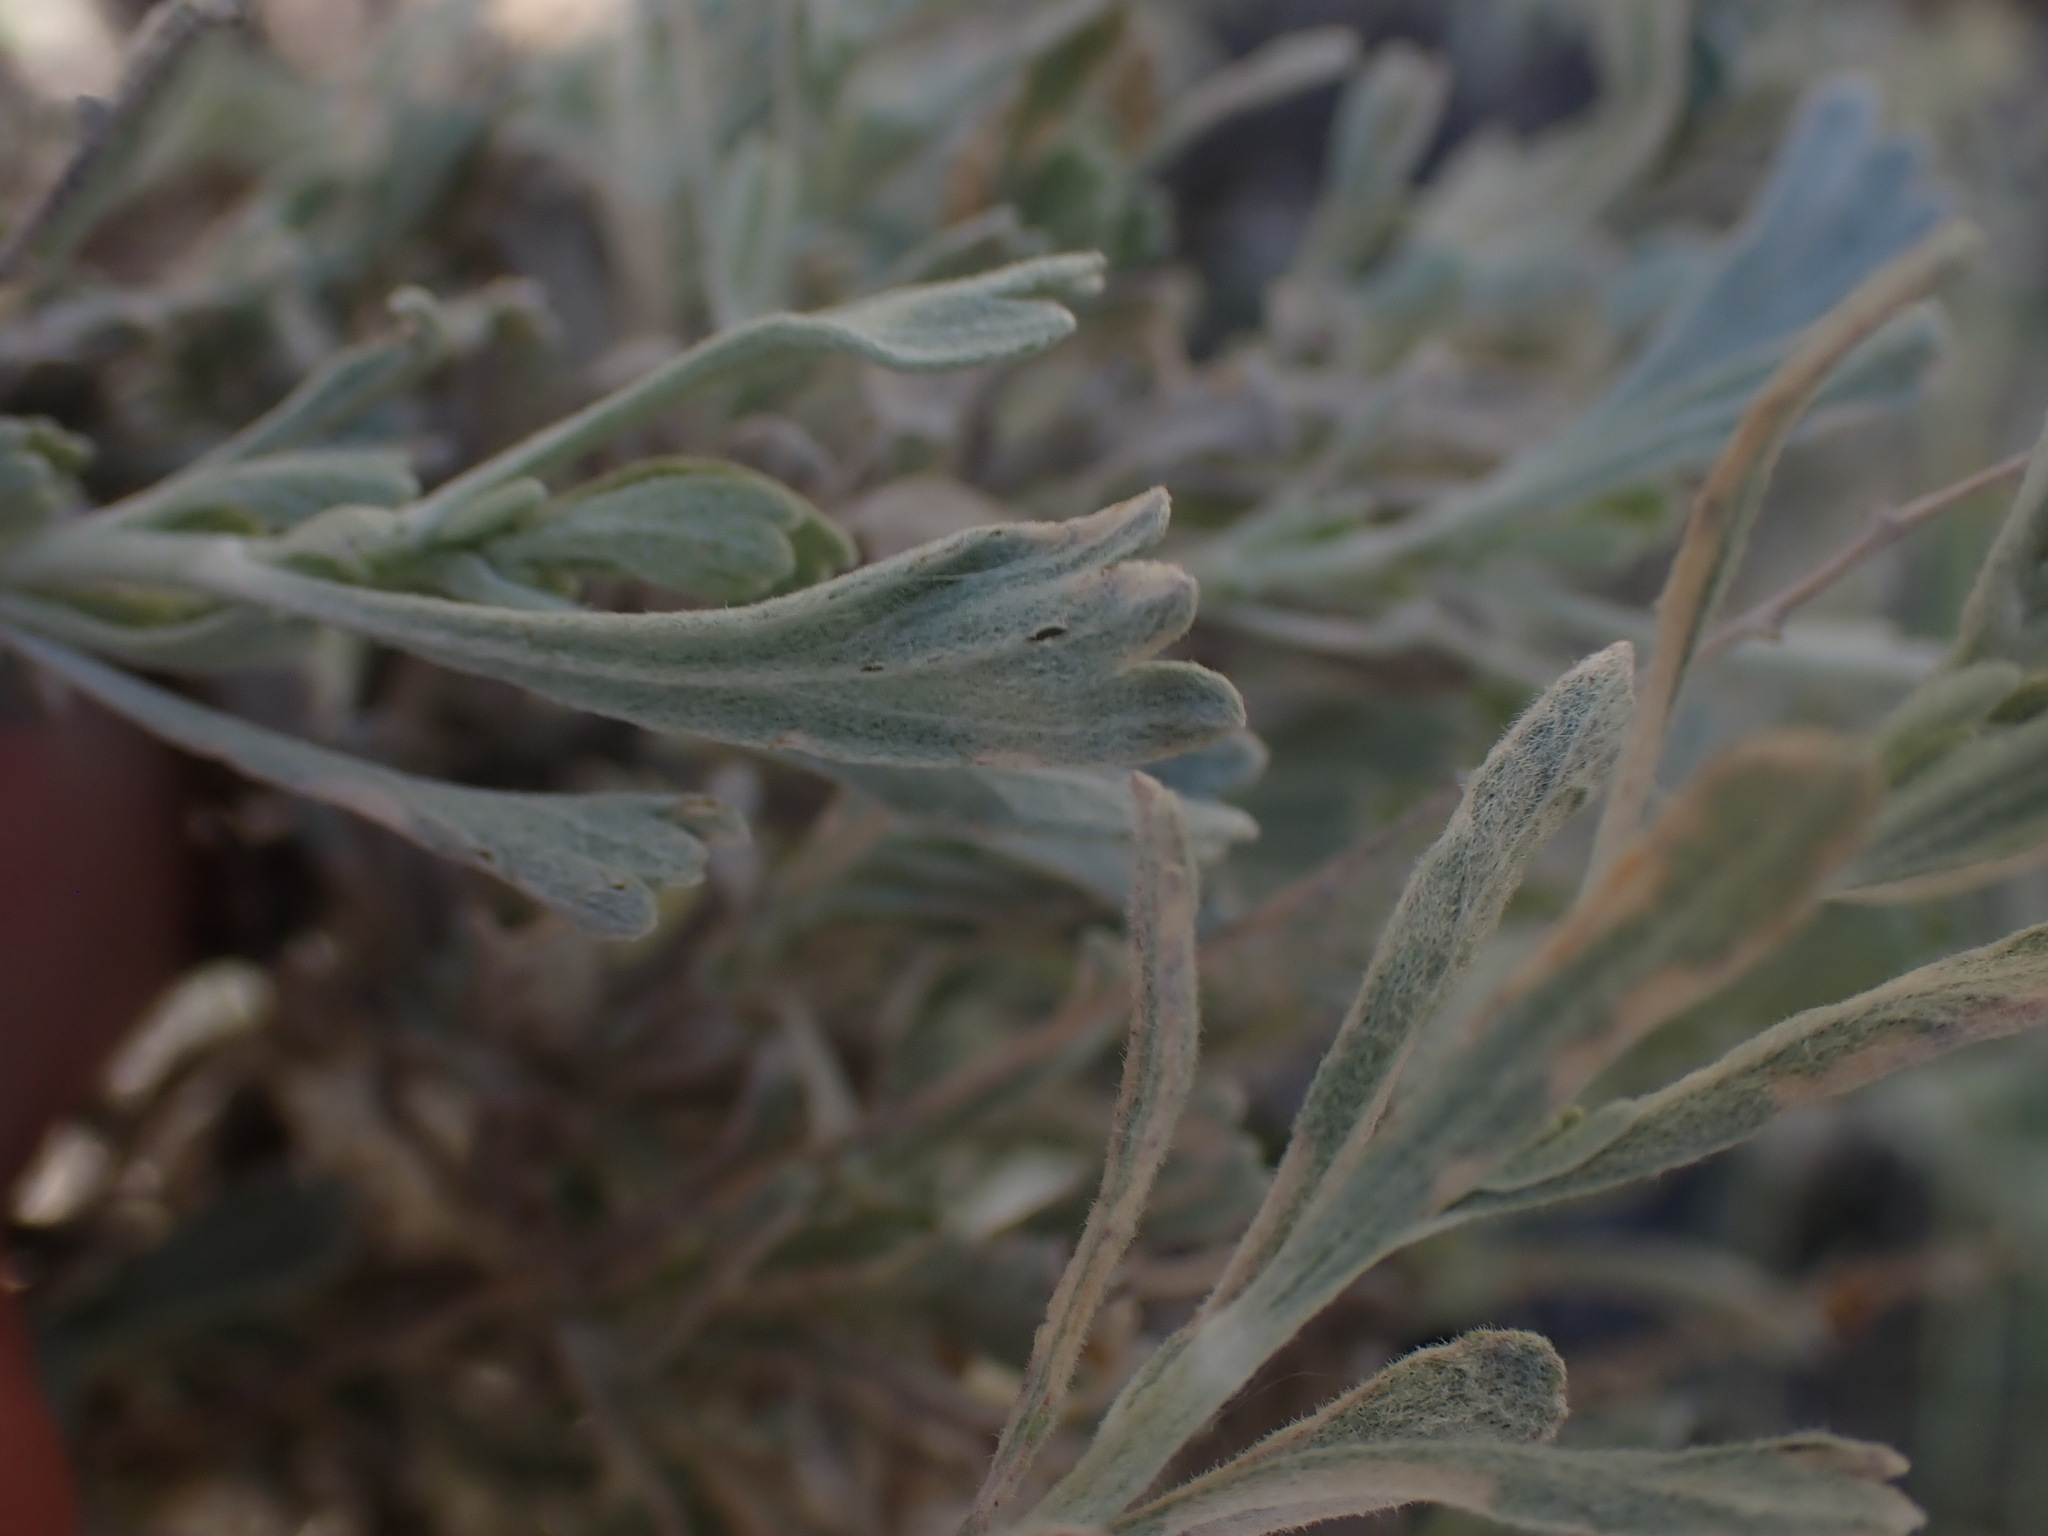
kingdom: Plantae
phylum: Tracheophyta
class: Magnoliopsida
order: Asterales
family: Asteraceae
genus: Artemisia
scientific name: Artemisia tridentata
